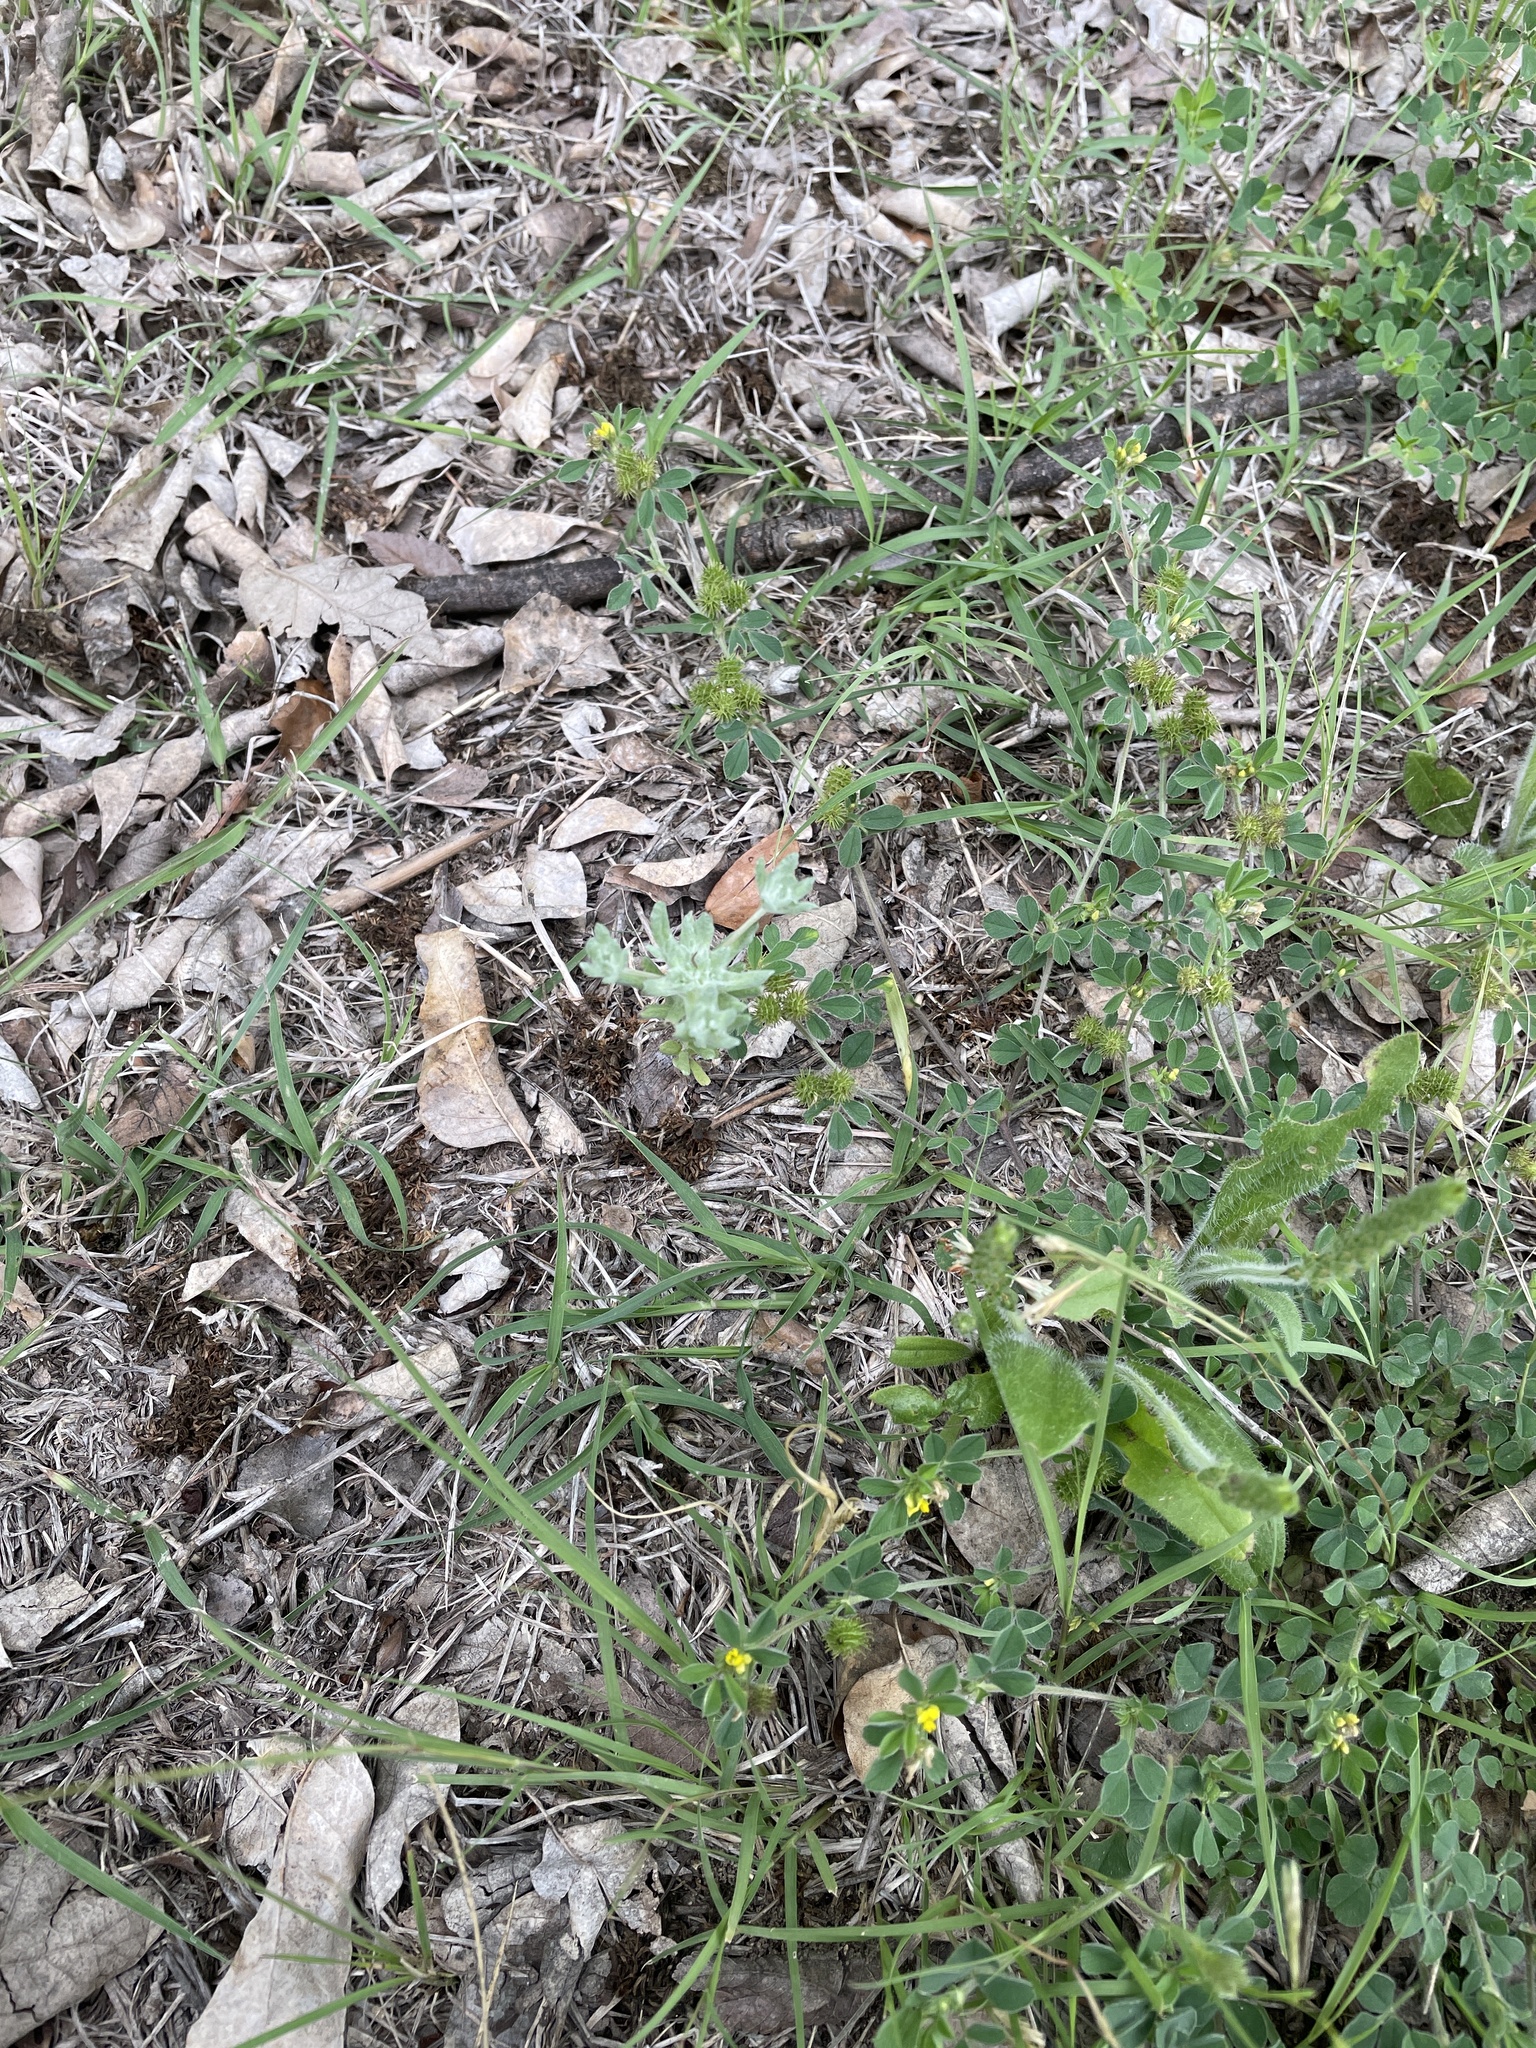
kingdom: Plantae
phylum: Tracheophyta
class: Magnoliopsida
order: Asterales
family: Asteraceae
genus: Diaperia
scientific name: Diaperia prolifera
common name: Big-head rabbit-tobacco
